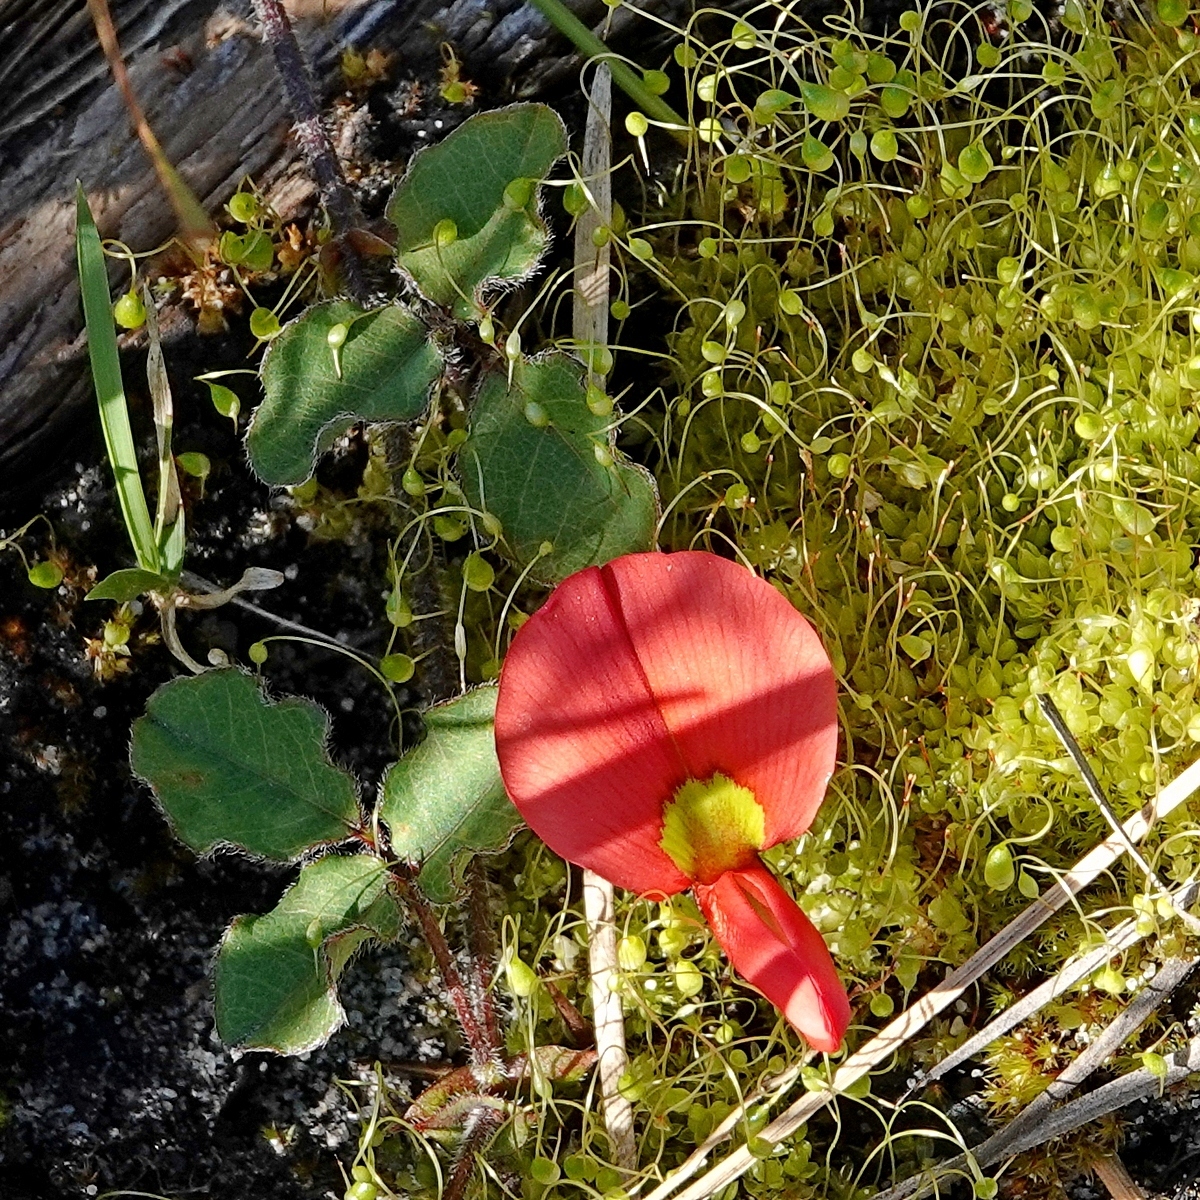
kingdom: Plantae
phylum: Tracheophyta
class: Magnoliopsida
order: Fabales
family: Fabaceae
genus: Kennedia
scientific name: Kennedia prostrata
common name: Running-postman
